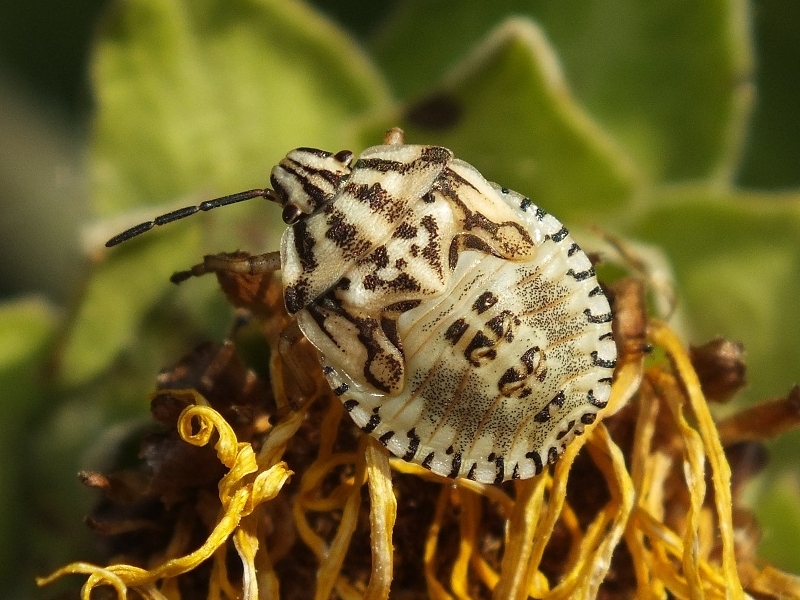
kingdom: Animalia
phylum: Arthropoda
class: Insecta
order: Hemiptera
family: Pentatomidae
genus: Carpocoris
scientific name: Carpocoris purpureipennis
